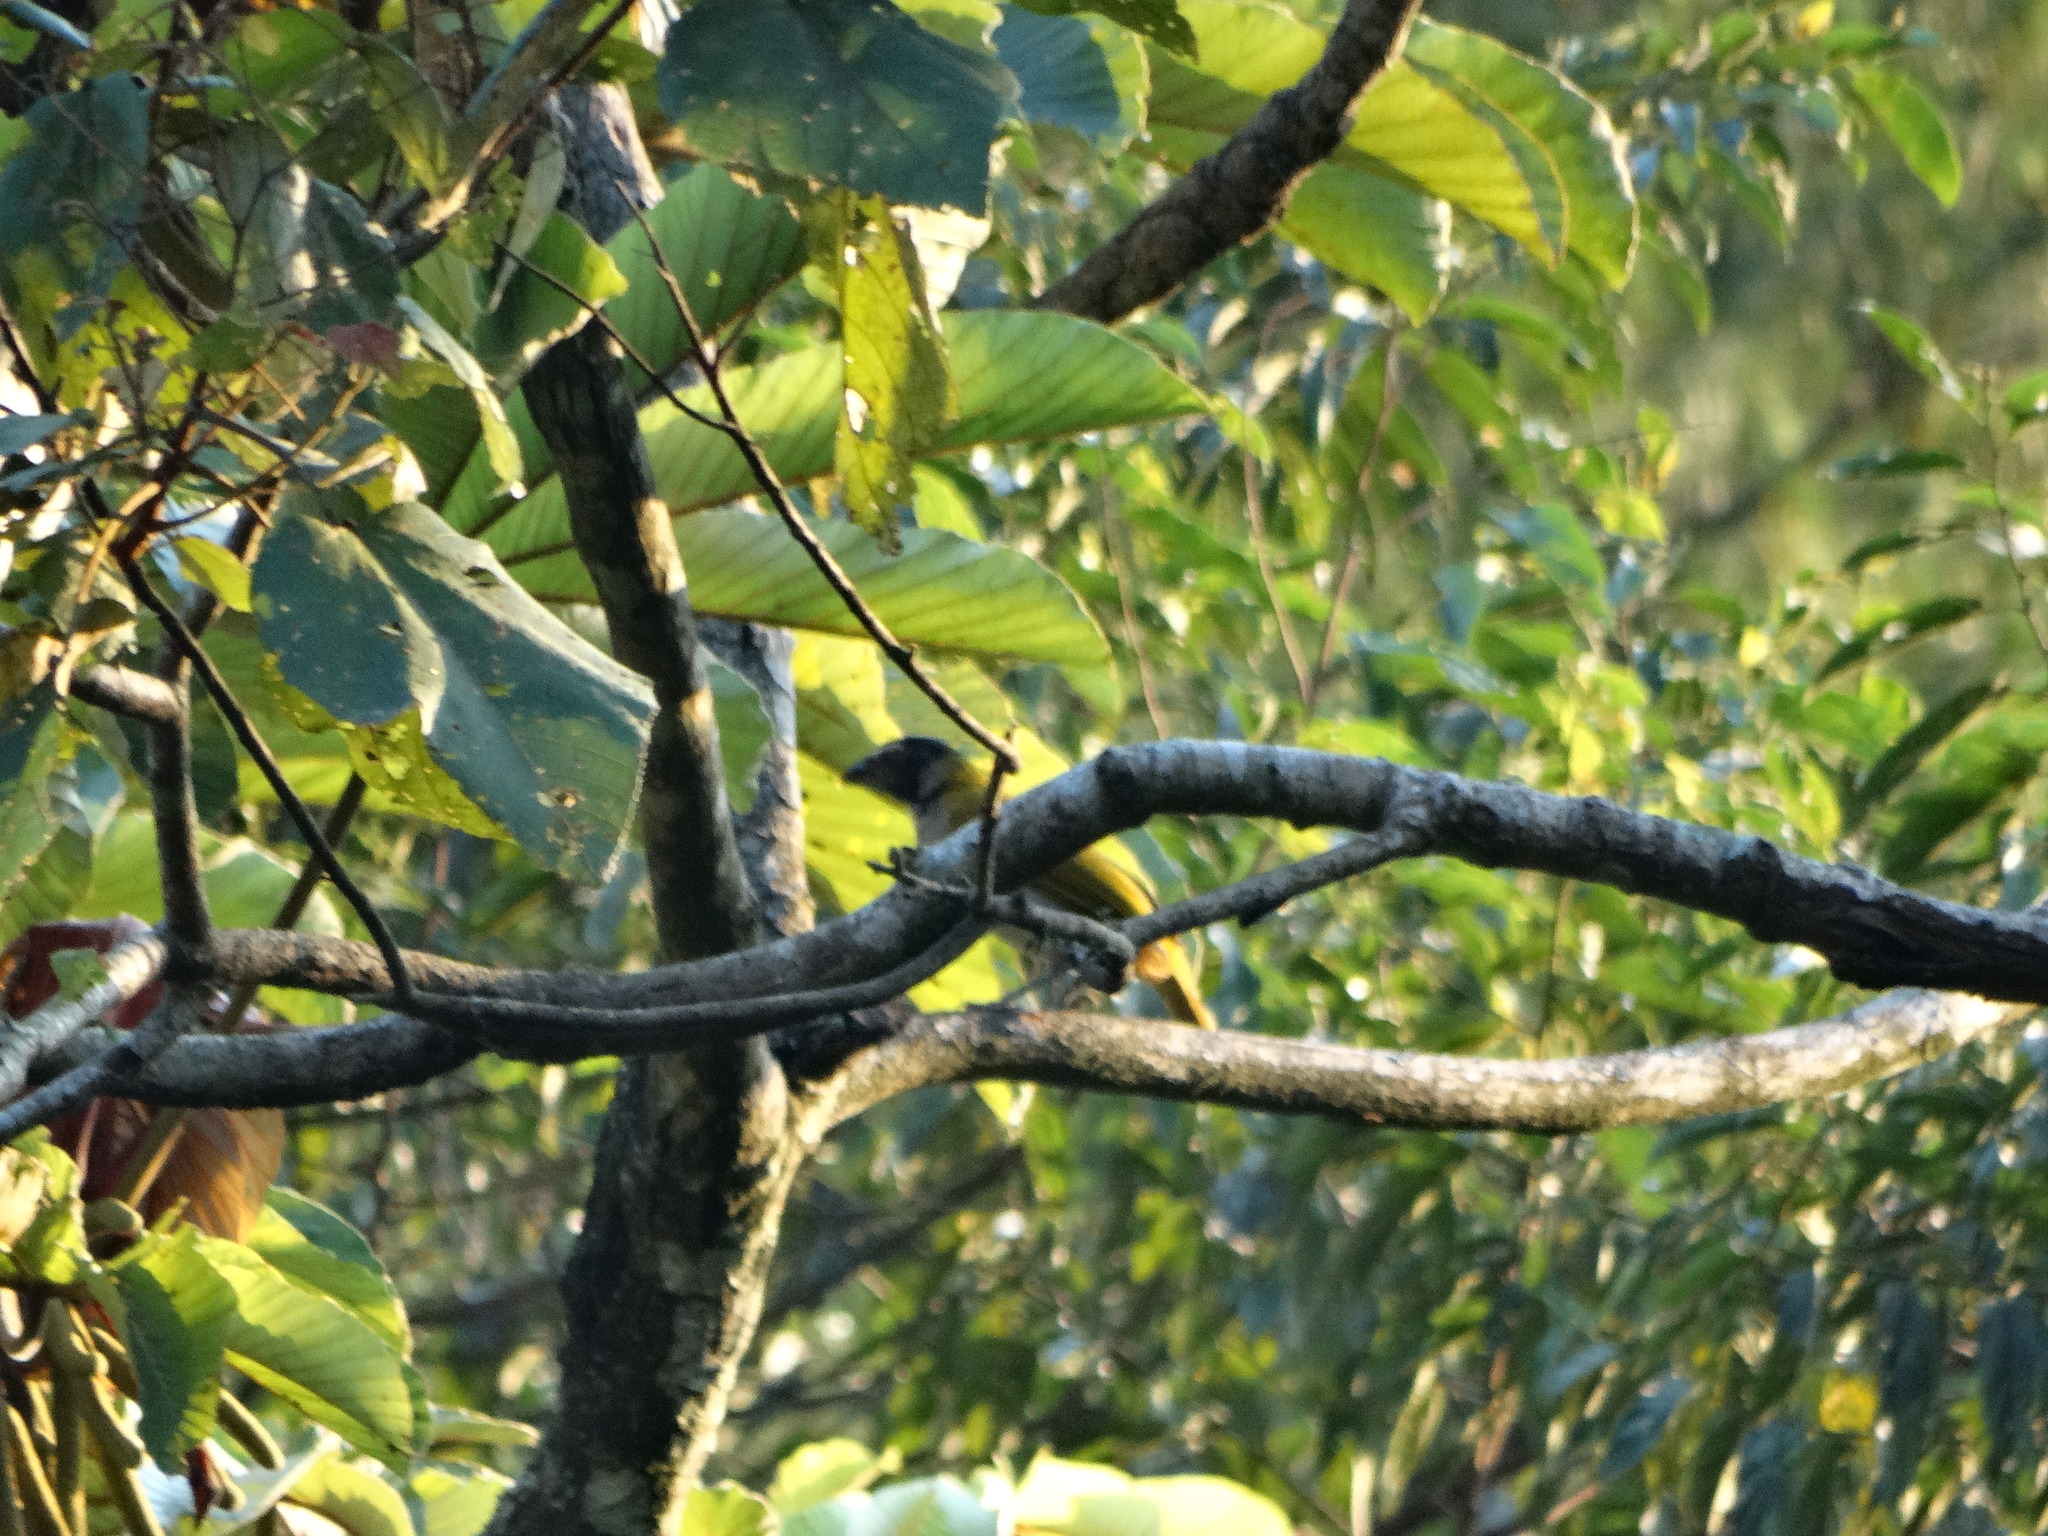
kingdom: Animalia
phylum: Chordata
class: Aves
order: Passeriformes
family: Thraupidae
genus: Saltator
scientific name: Saltator atriceps
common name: Black-headed saltator
